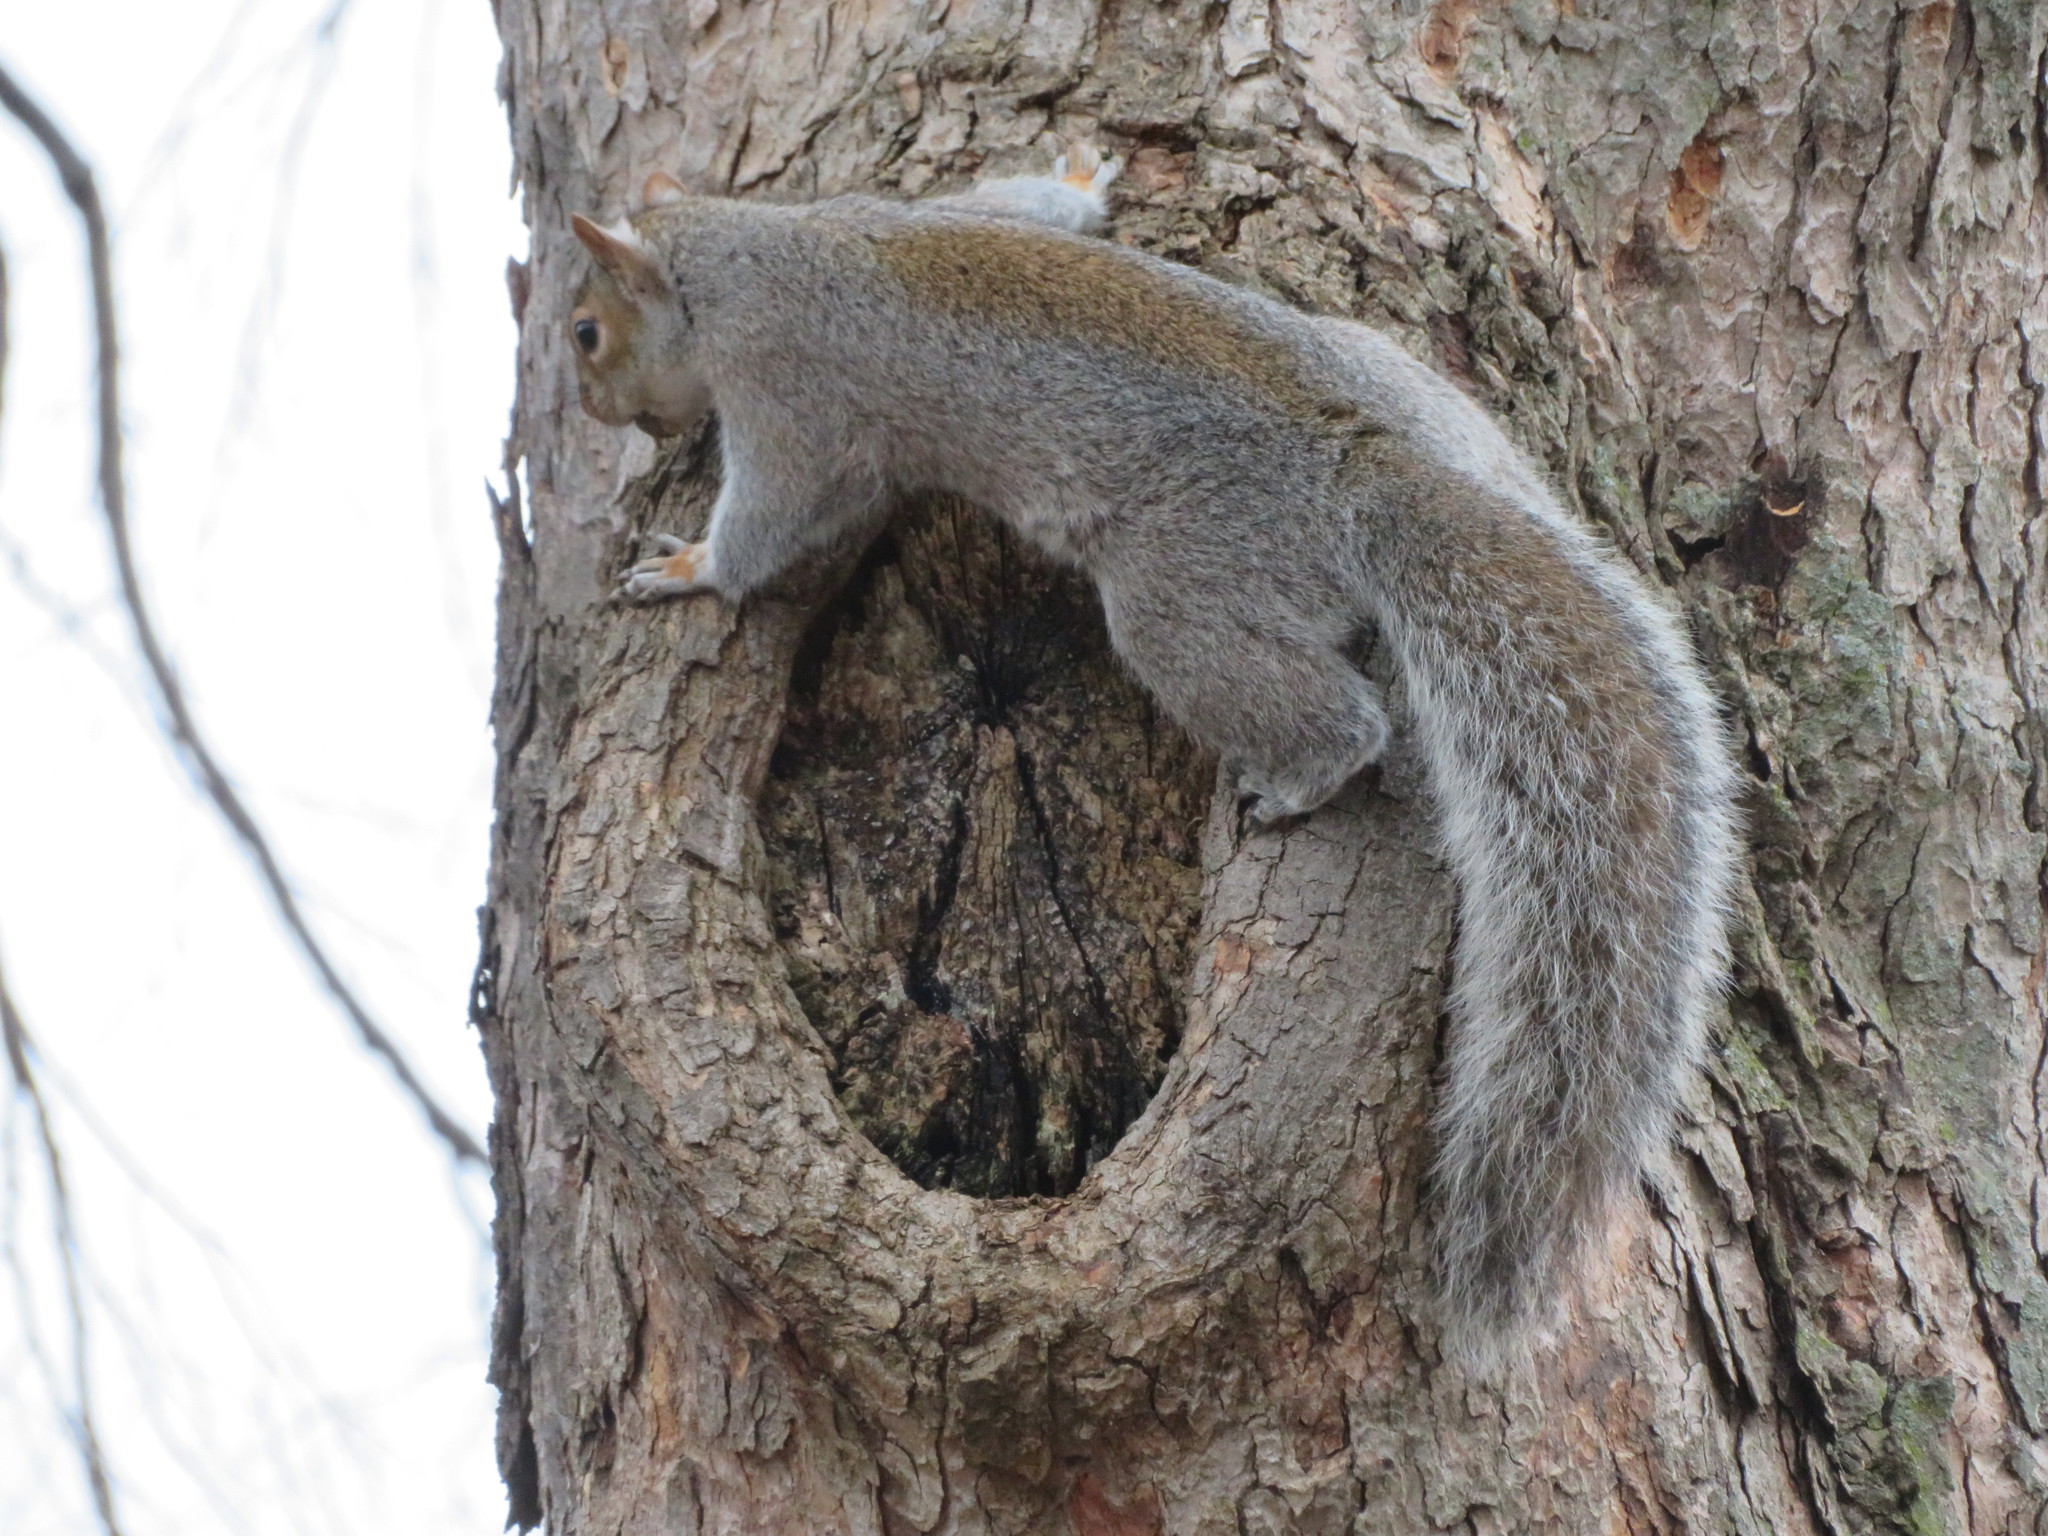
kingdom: Animalia
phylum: Chordata
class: Mammalia
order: Rodentia
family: Sciuridae
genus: Sciurus
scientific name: Sciurus carolinensis
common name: Eastern gray squirrel
